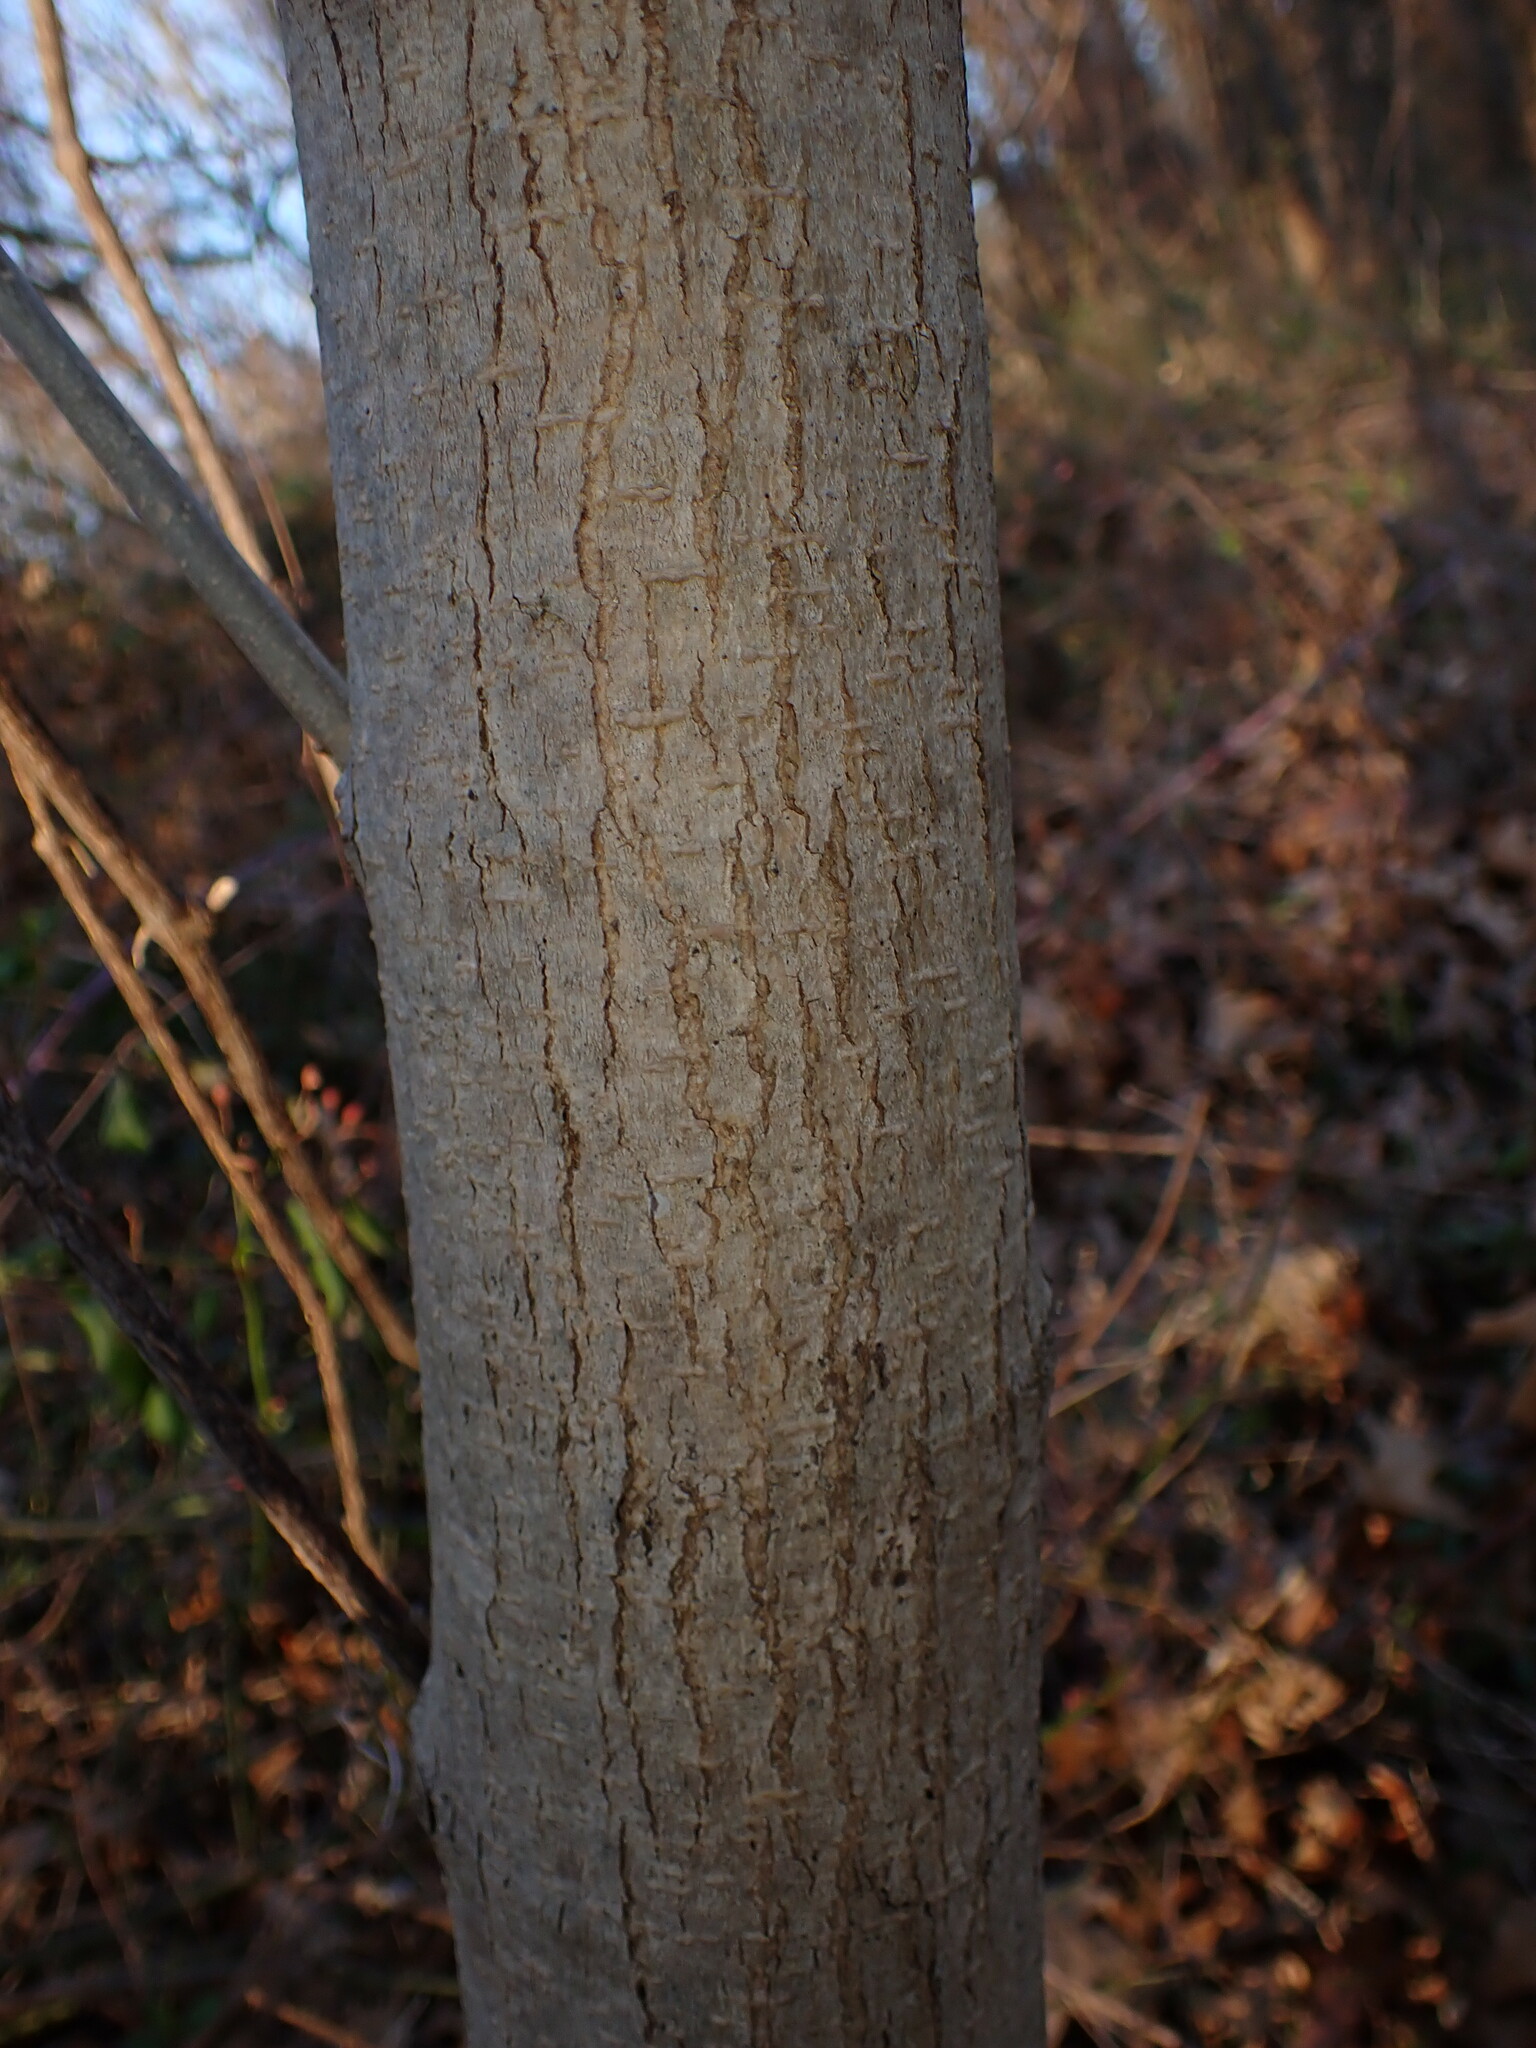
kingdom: Plantae
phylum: Tracheophyta
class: Magnoliopsida
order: Lamiales
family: Oleaceae
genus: Fraxinus
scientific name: Fraxinus pennsylvanica
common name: Green ash
